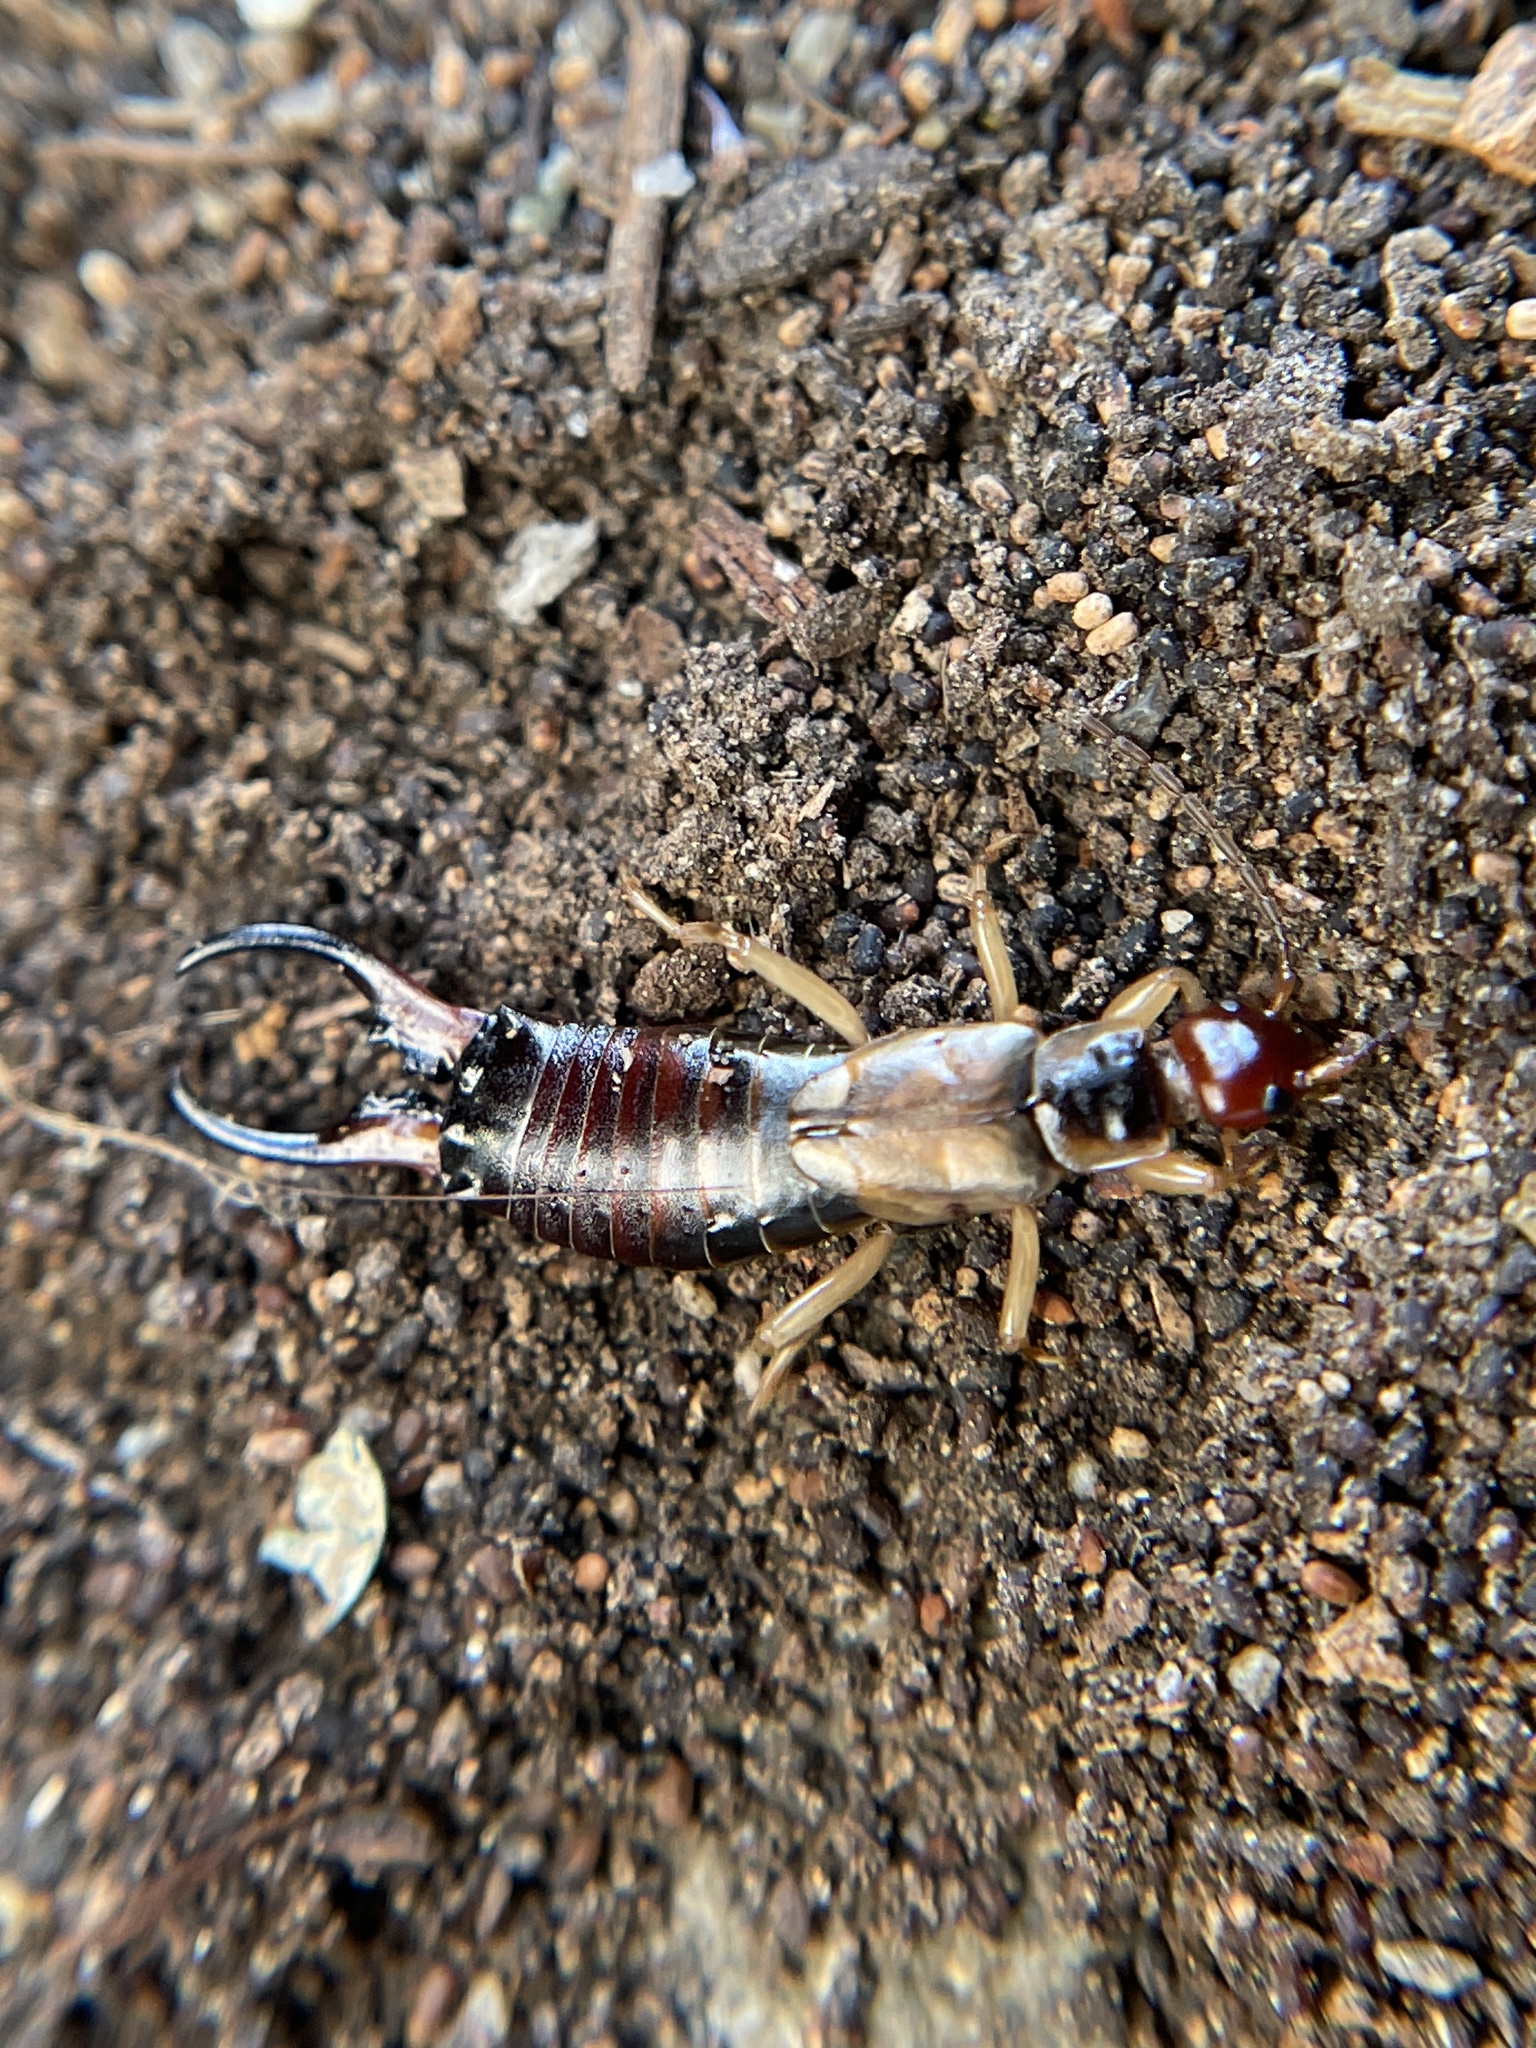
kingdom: Animalia
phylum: Arthropoda
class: Insecta
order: Dermaptera
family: Forficulidae
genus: Forficula
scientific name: Forficula
